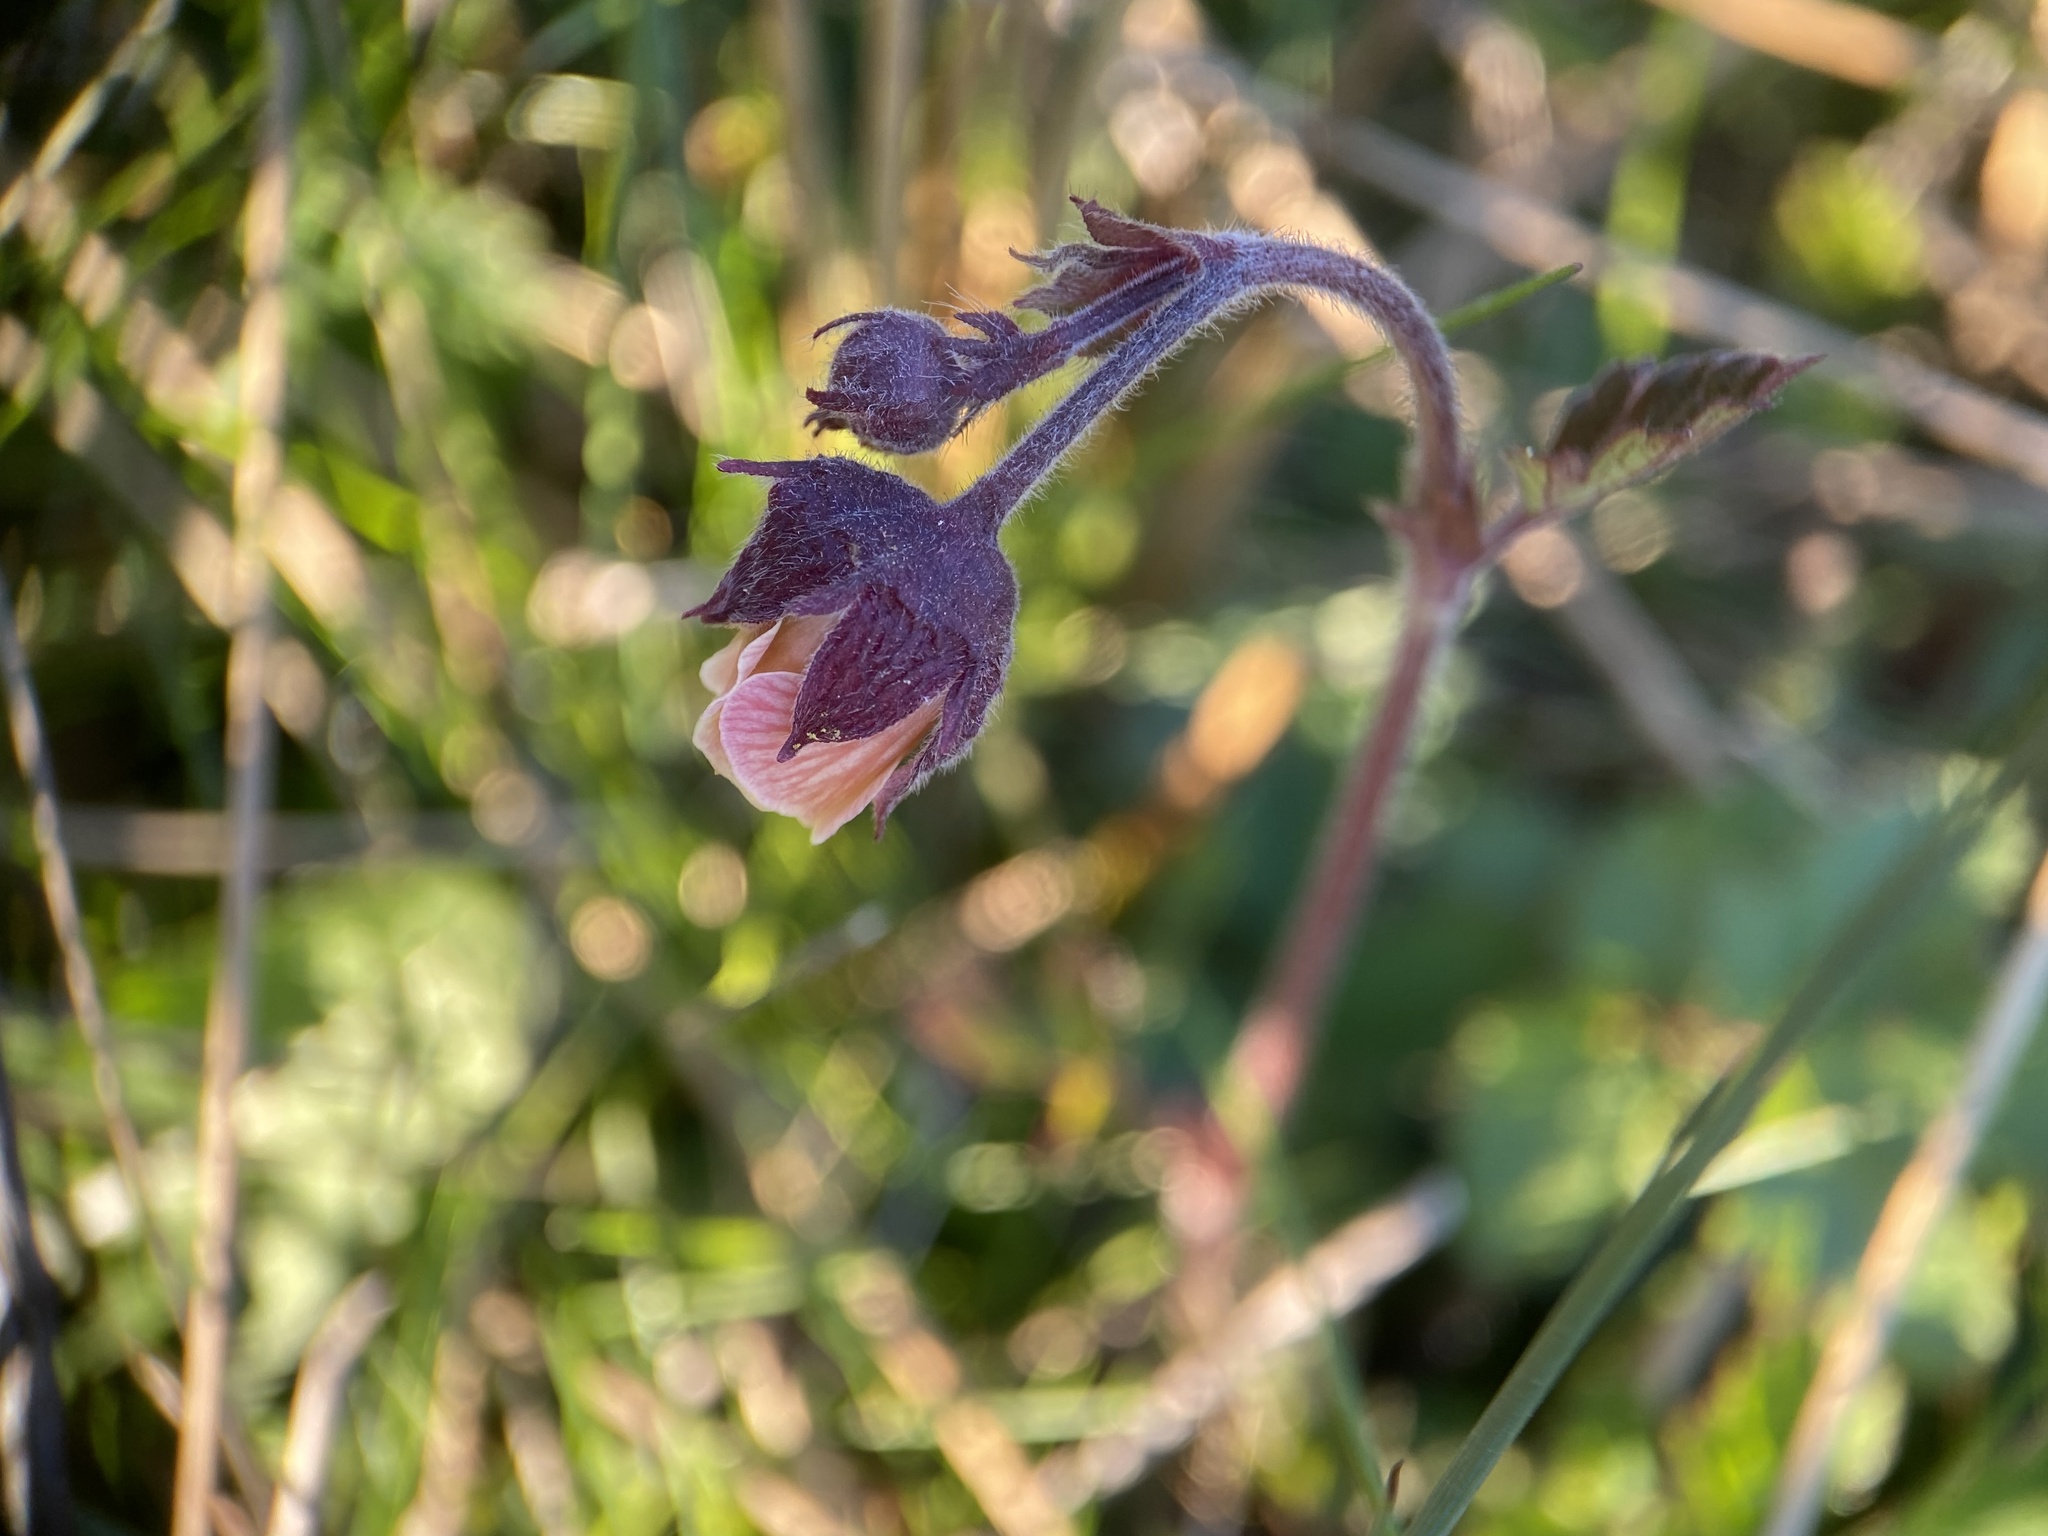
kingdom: Plantae
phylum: Tracheophyta
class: Magnoliopsida
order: Rosales
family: Rosaceae
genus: Geum
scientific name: Geum rivale
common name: Water avens
